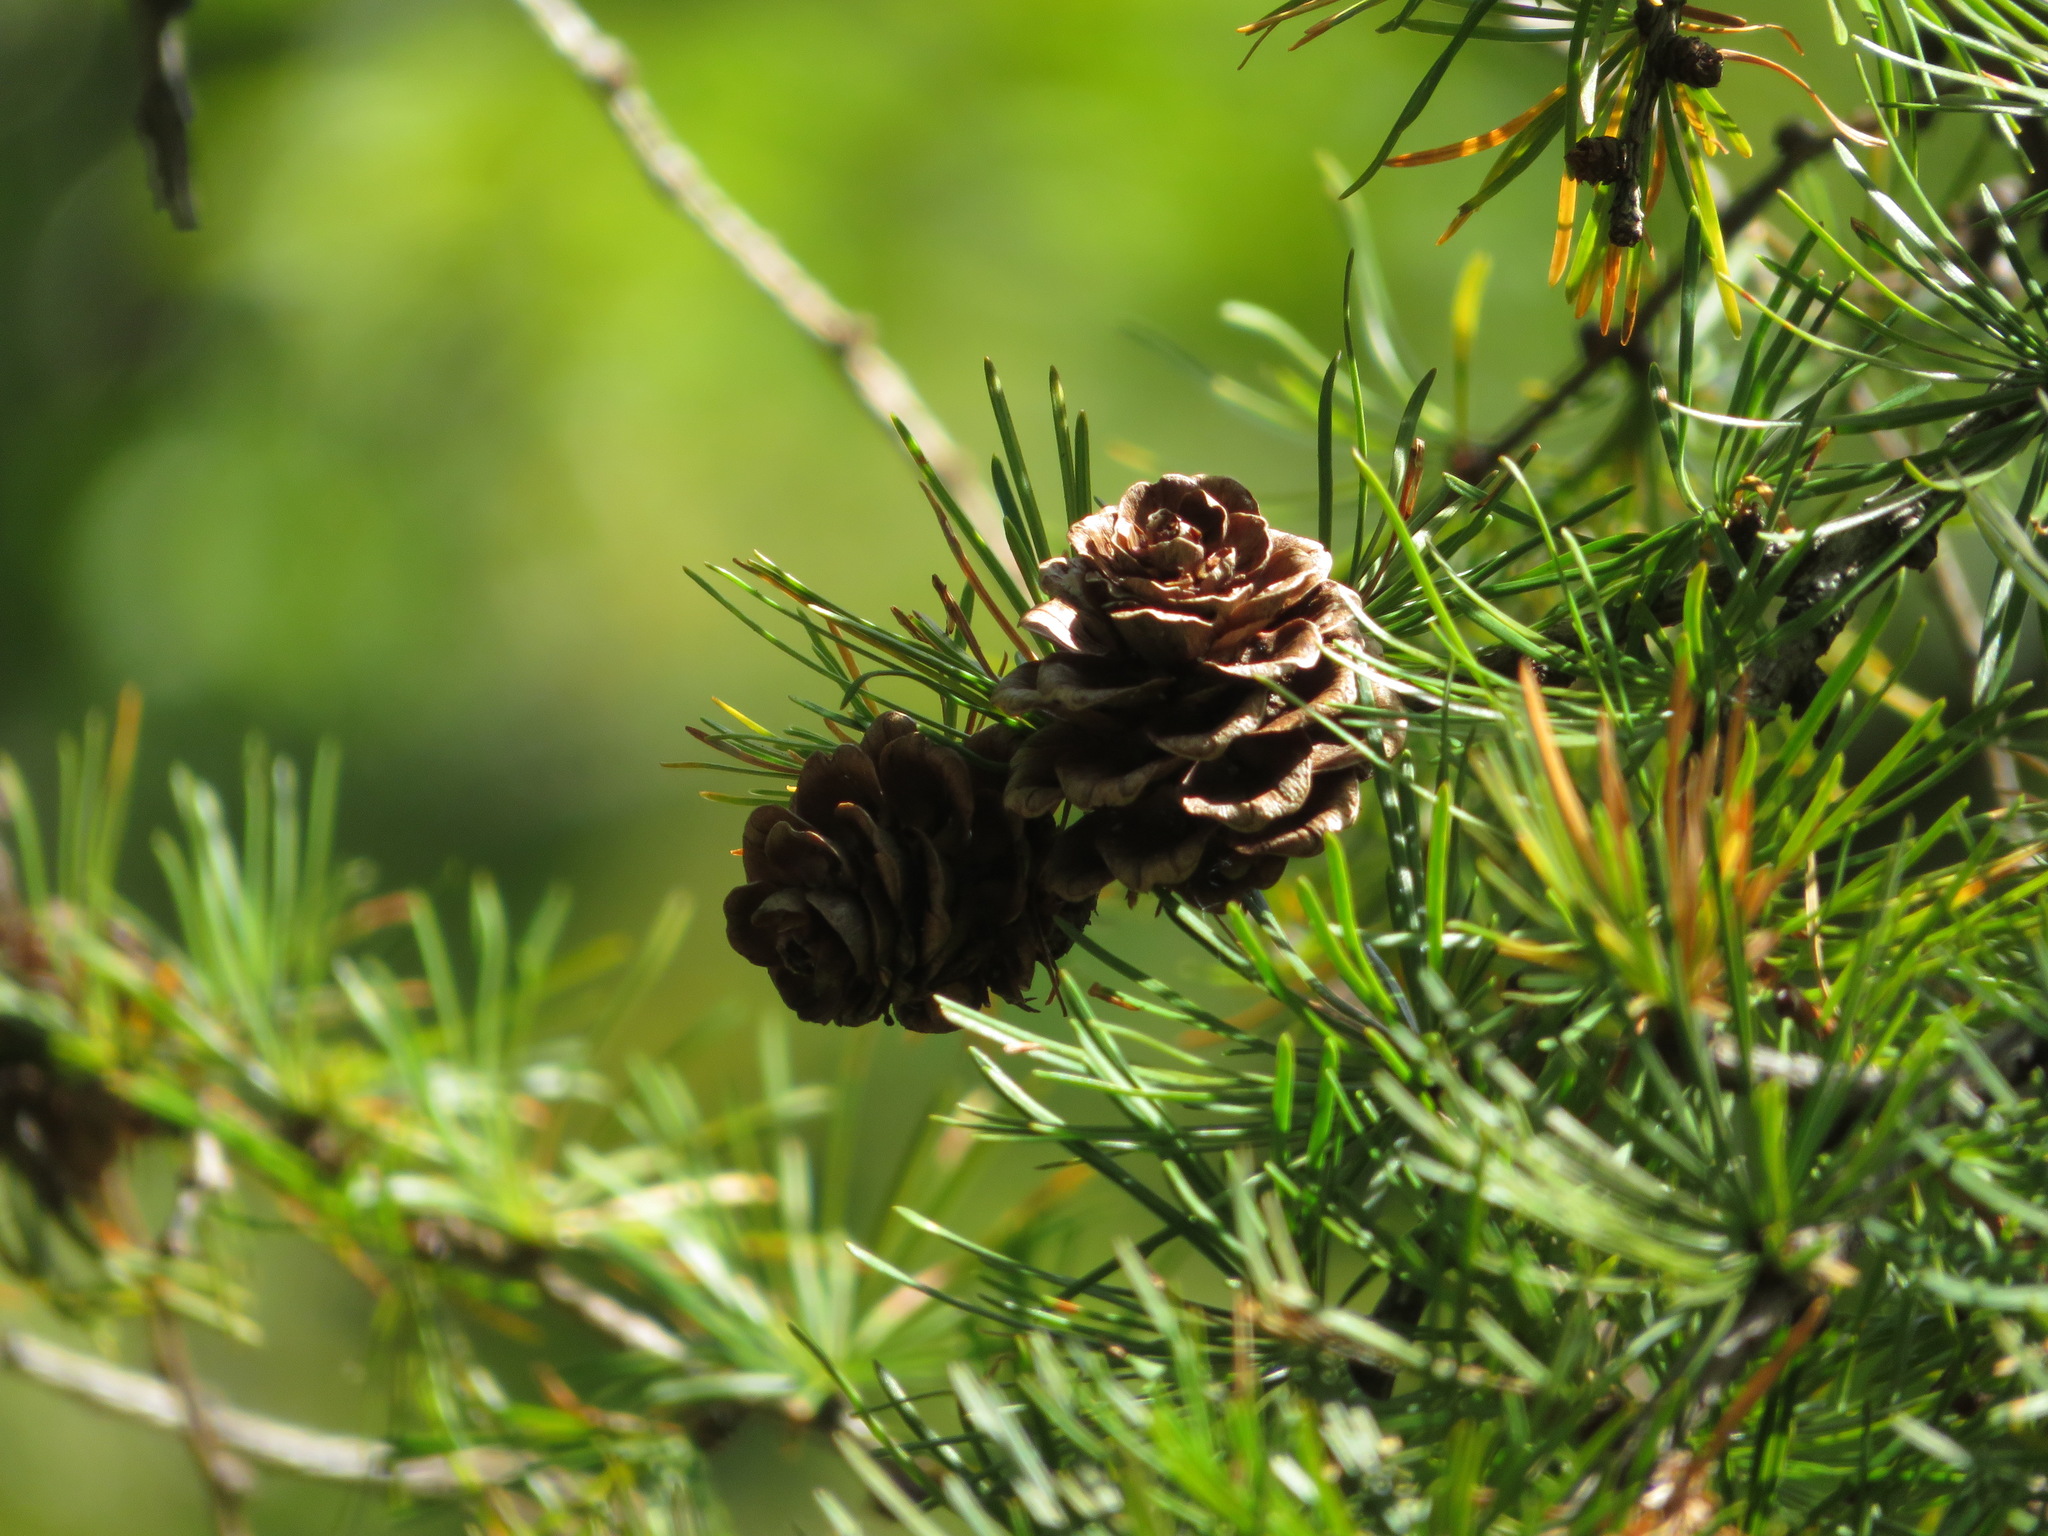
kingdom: Plantae
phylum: Tracheophyta
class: Pinopsida
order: Pinales
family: Pinaceae
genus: Larix
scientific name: Larix kaempferi
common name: Japanese larch
